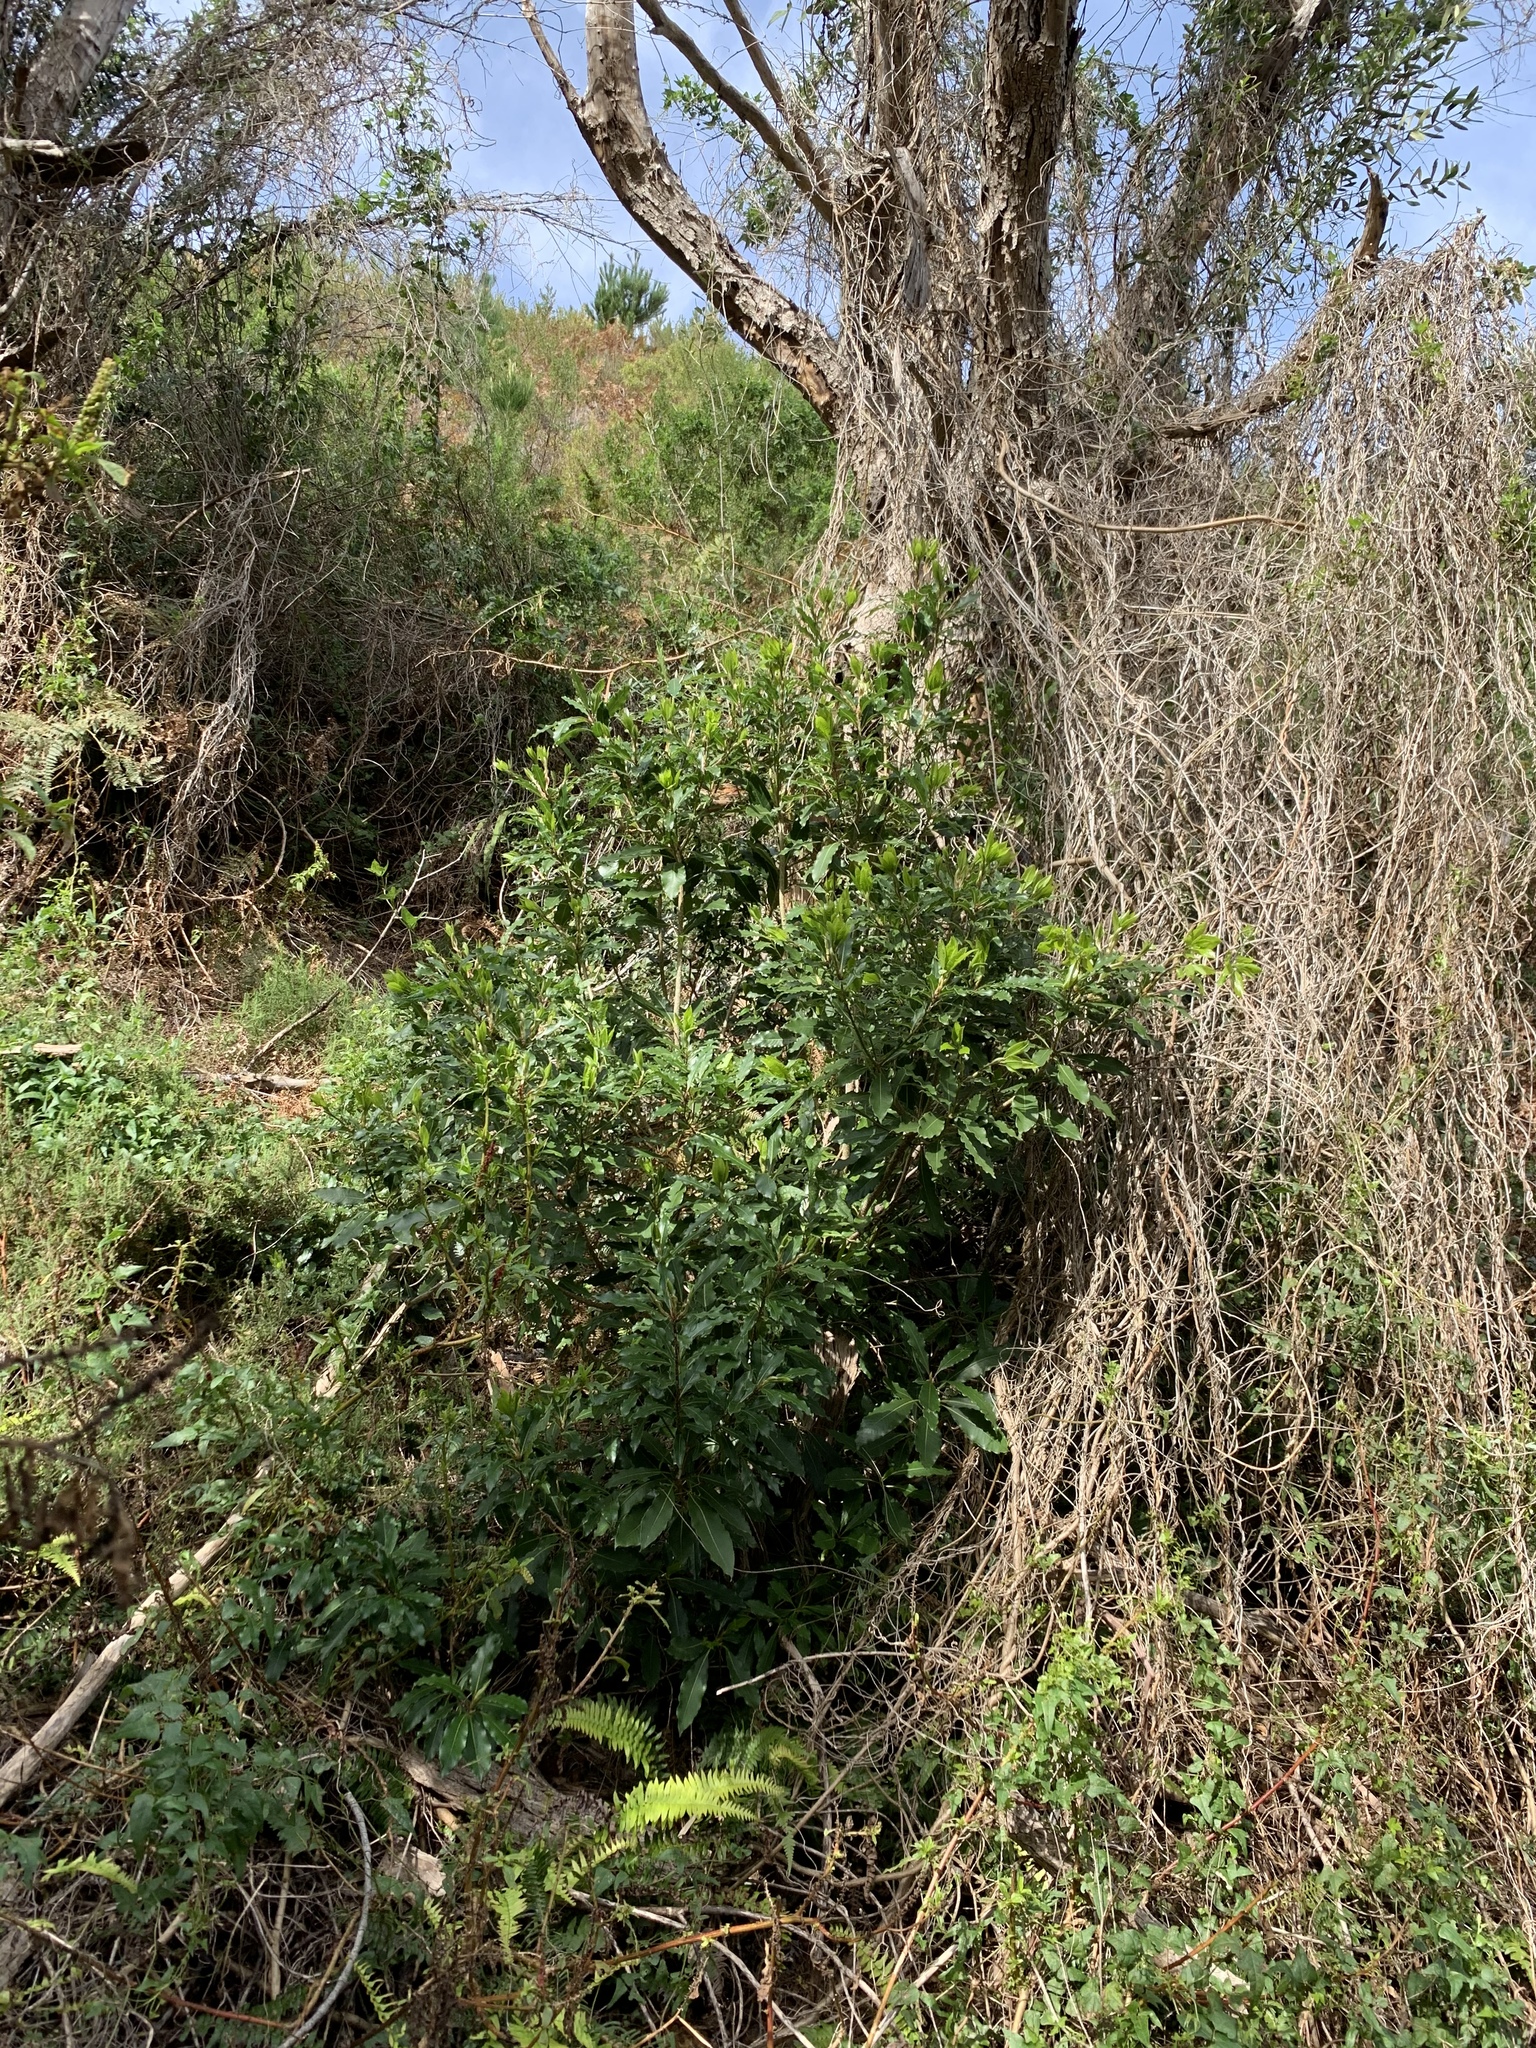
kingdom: Plantae
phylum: Tracheophyta
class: Magnoliopsida
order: Apiales
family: Pittosporaceae
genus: Pittosporum
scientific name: Pittosporum undulatum
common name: Australian cheesewood
